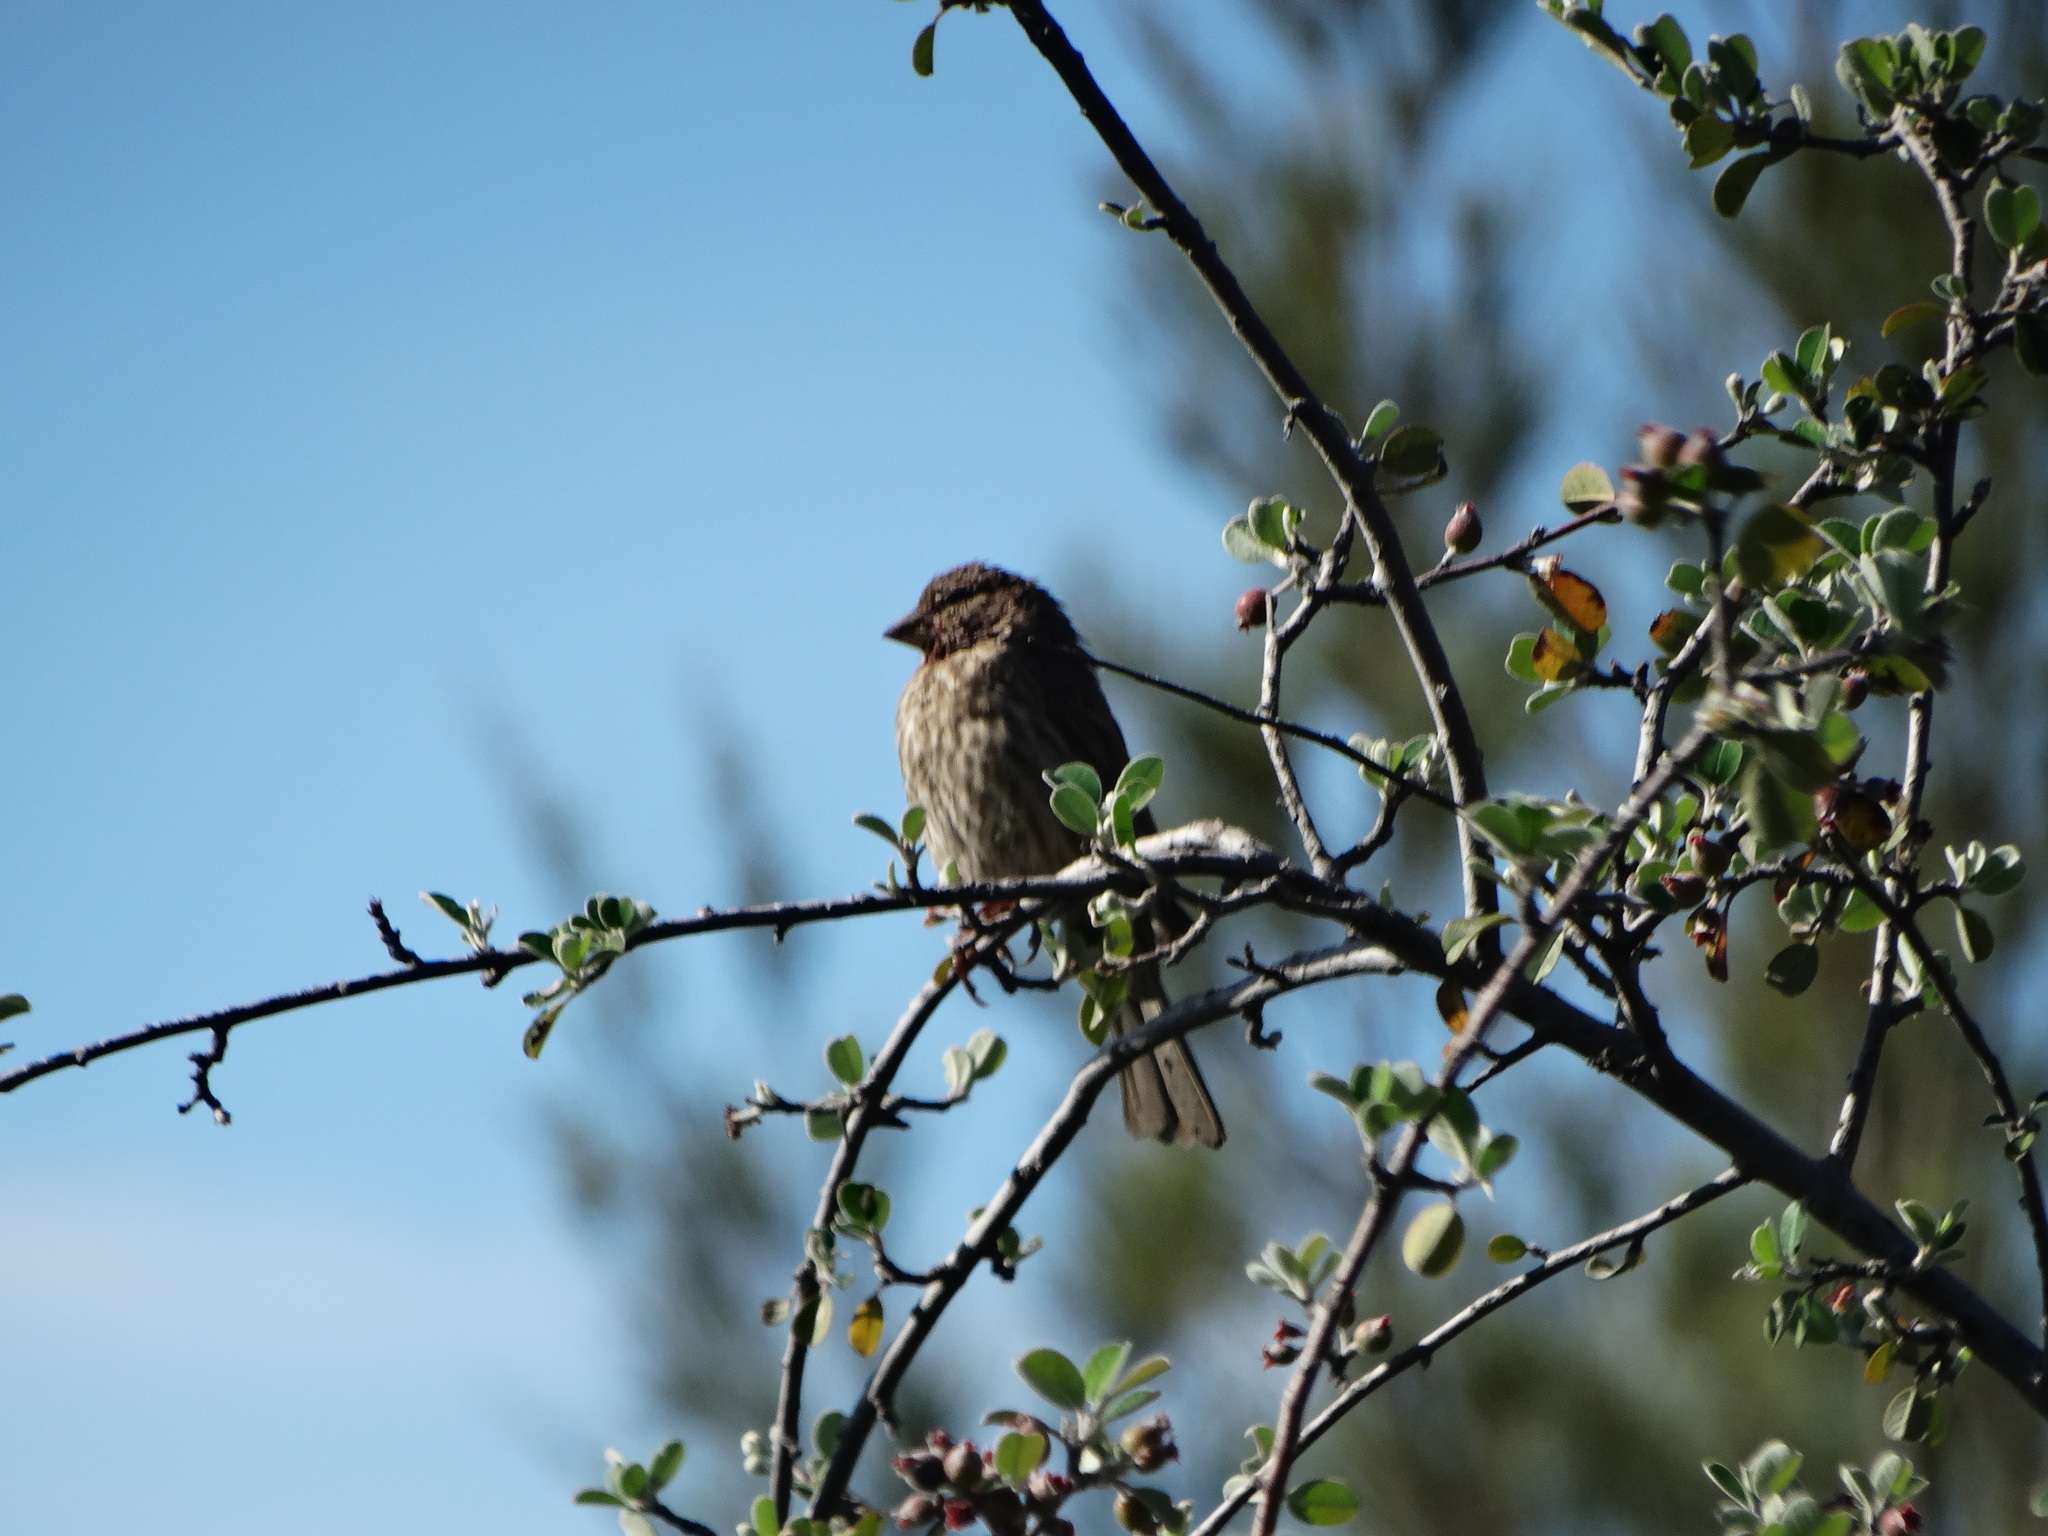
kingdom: Animalia
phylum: Chordata
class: Aves
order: Passeriformes
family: Fringillidae
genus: Haemorhous
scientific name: Haemorhous mexicanus
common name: House finch
